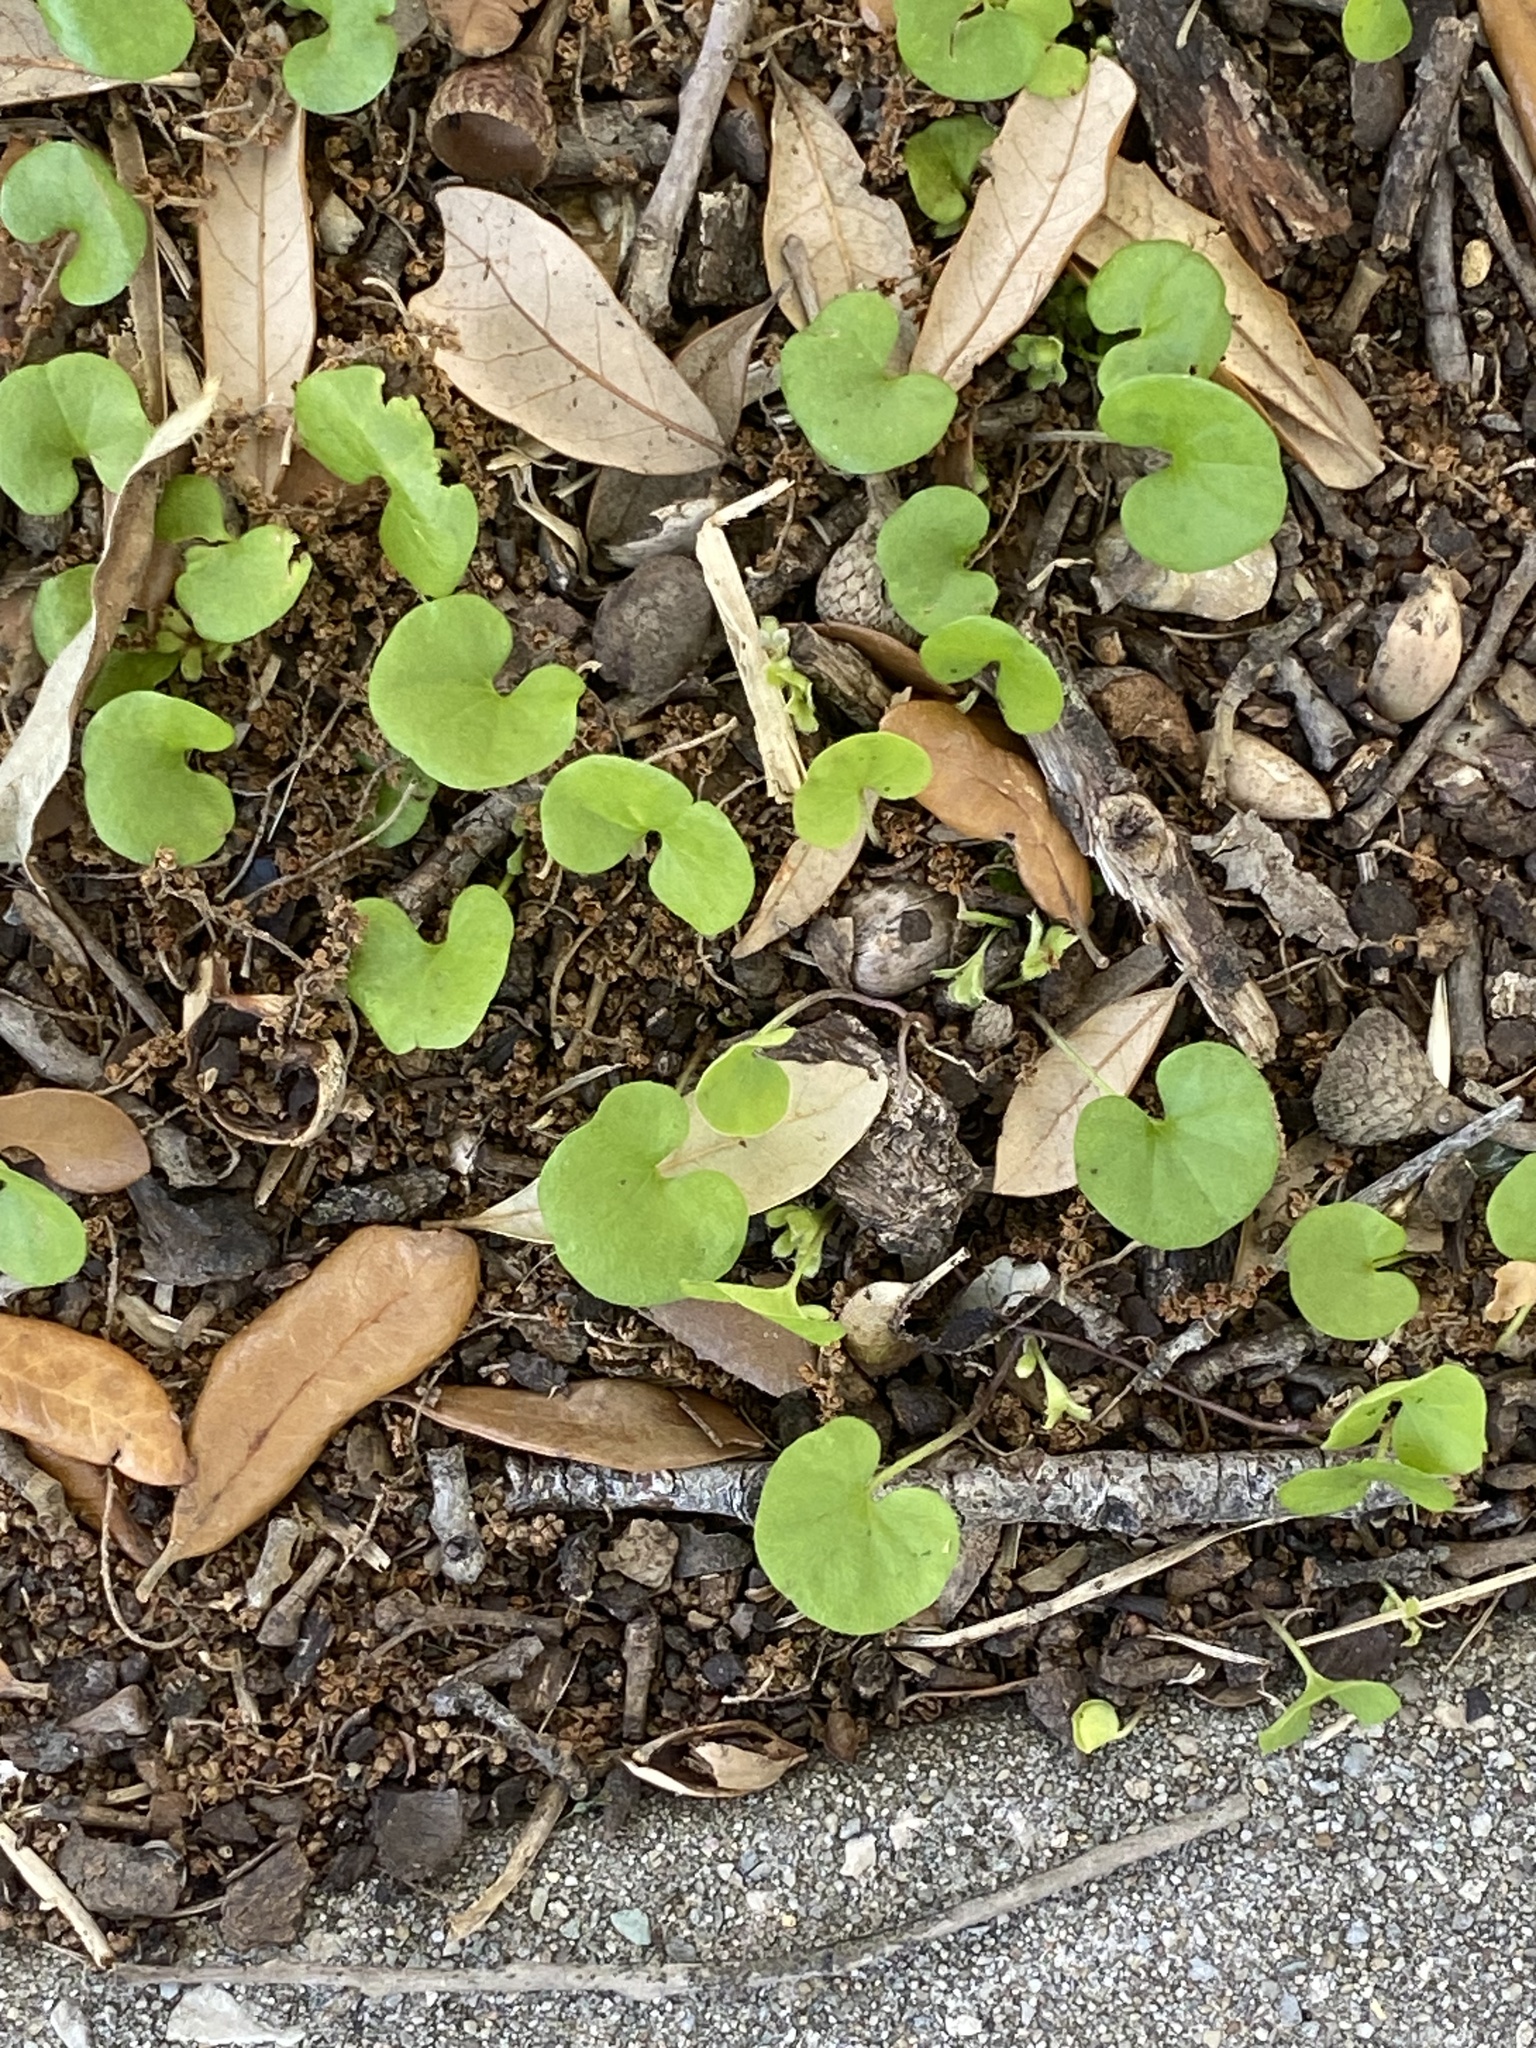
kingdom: Plantae
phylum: Tracheophyta
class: Magnoliopsida
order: Solanales
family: Convolvulaceae
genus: Dichondra
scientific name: Dichondra carolinensis
